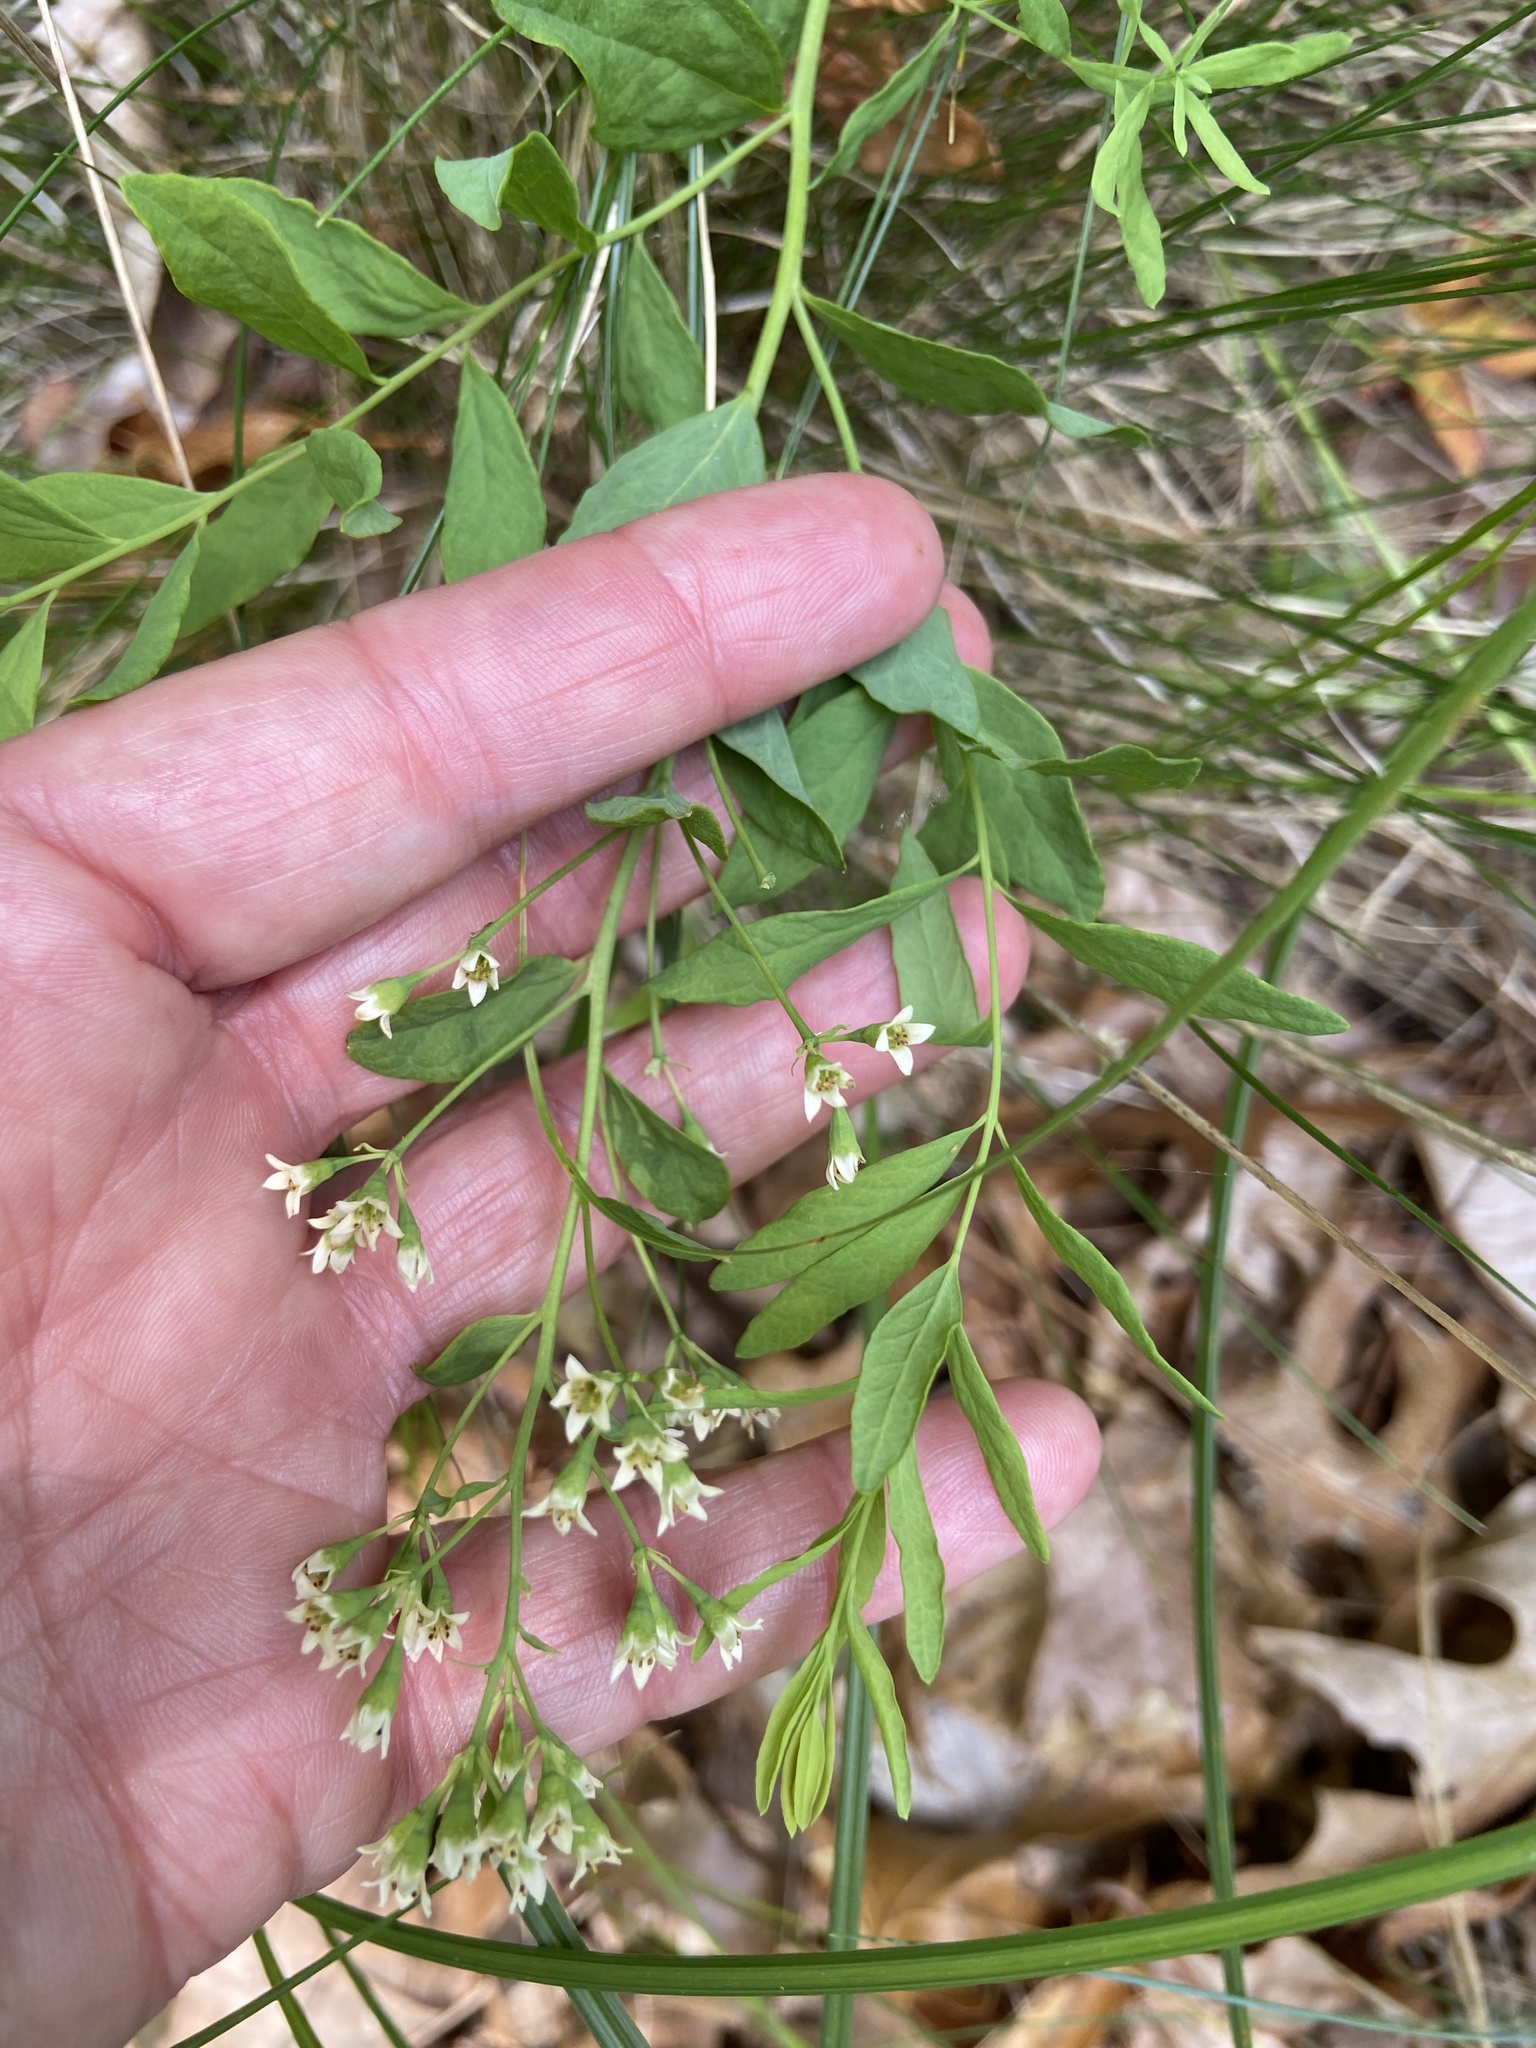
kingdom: Plantae
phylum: Tracheophyta
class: Magnoliopsida
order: Santalales
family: Comandraceae
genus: Comandra
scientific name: Comandra umbellata
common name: Bastard toadflax
